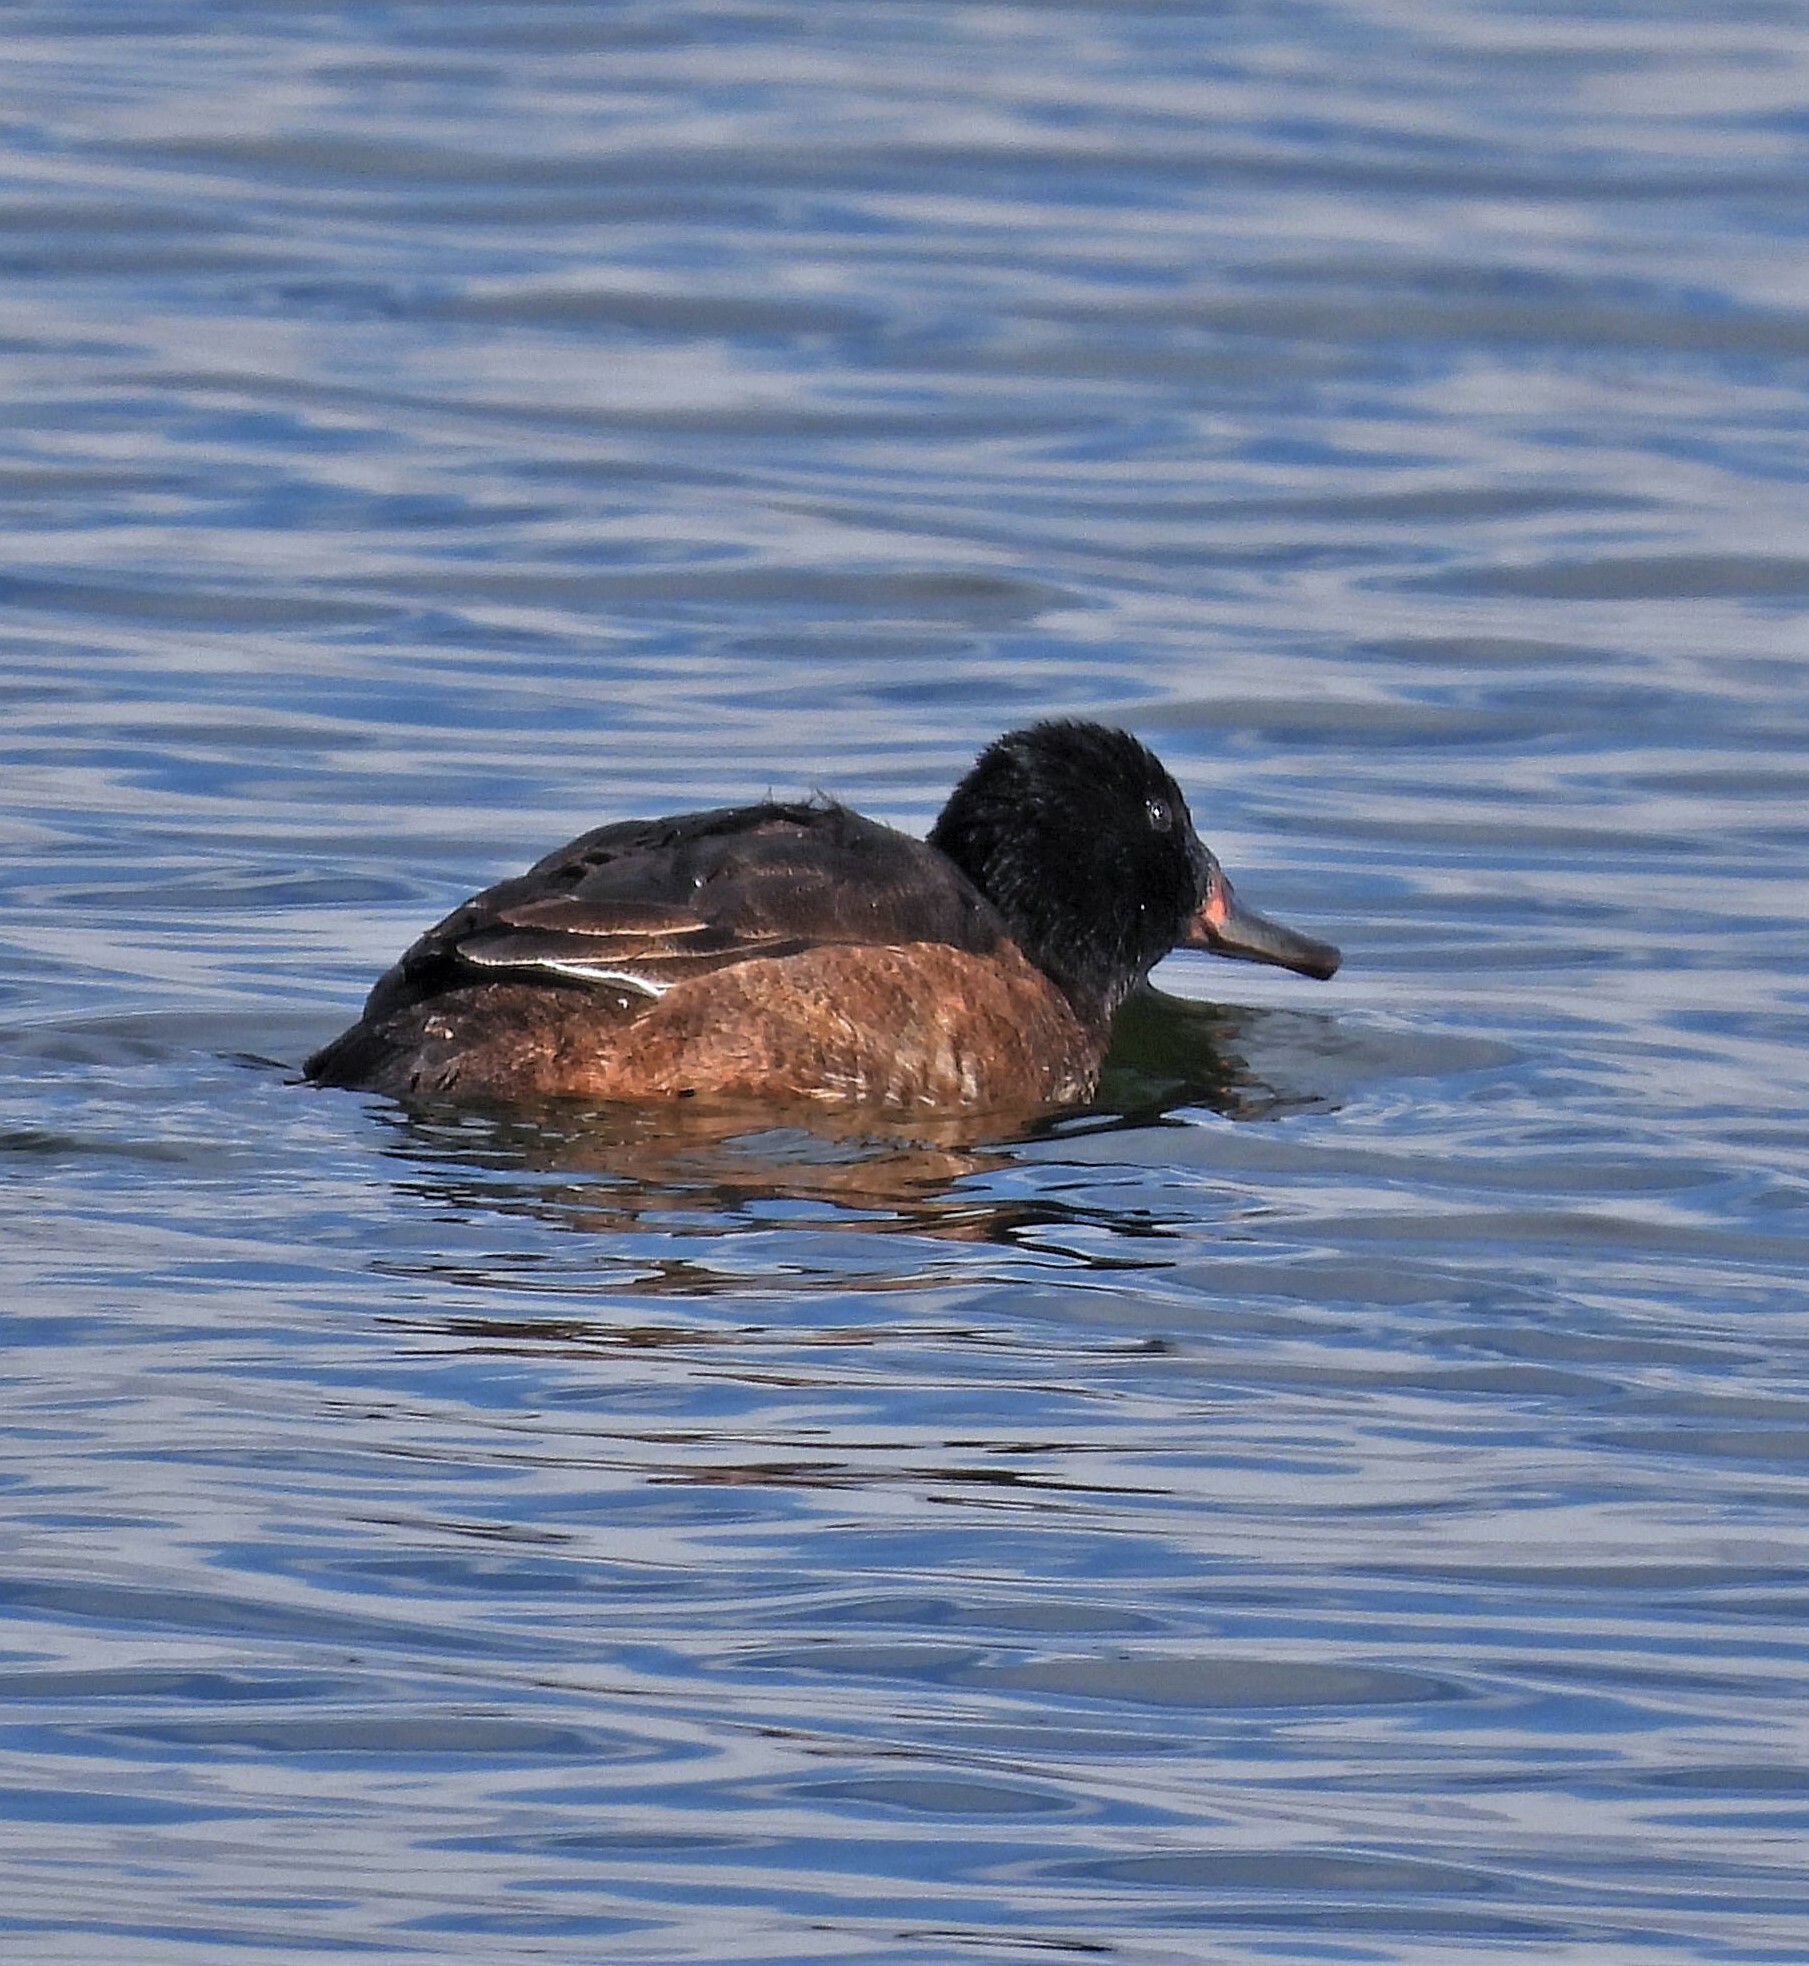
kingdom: Animalia
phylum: Chordata
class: Aves
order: Anseriformes
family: Anatidae
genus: Heteronetta
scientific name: Heteronetta atricapilla
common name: Black-headed duck
